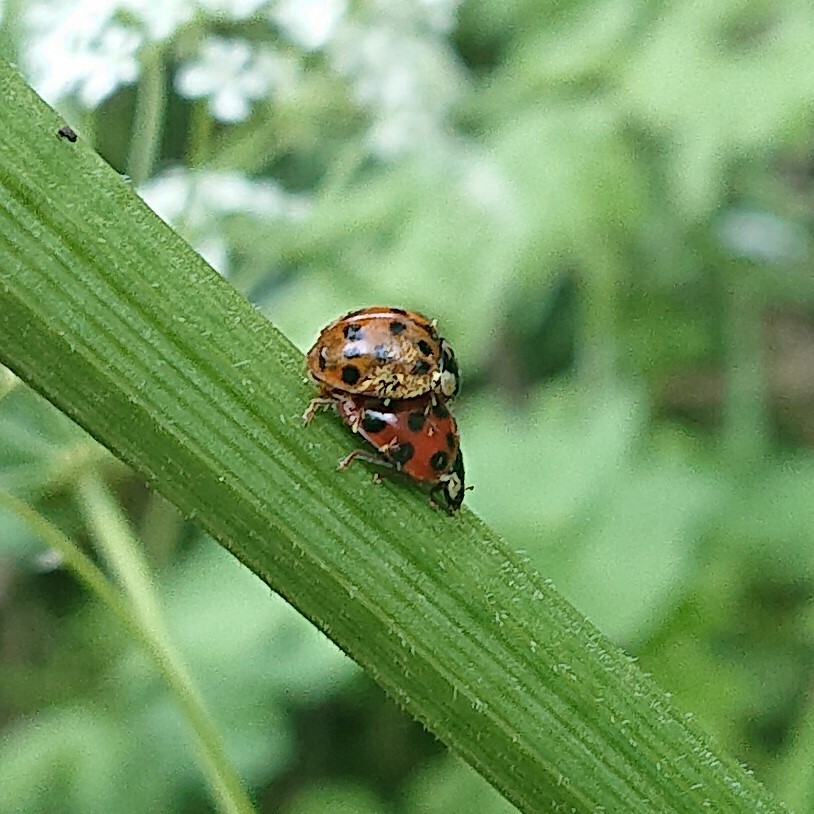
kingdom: Animalia
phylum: Arthropoda
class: Insecta
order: Coleoptera
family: Coccinellidae
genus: Harmonia
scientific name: Harmonia axyridis
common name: Harlequin ladybird
